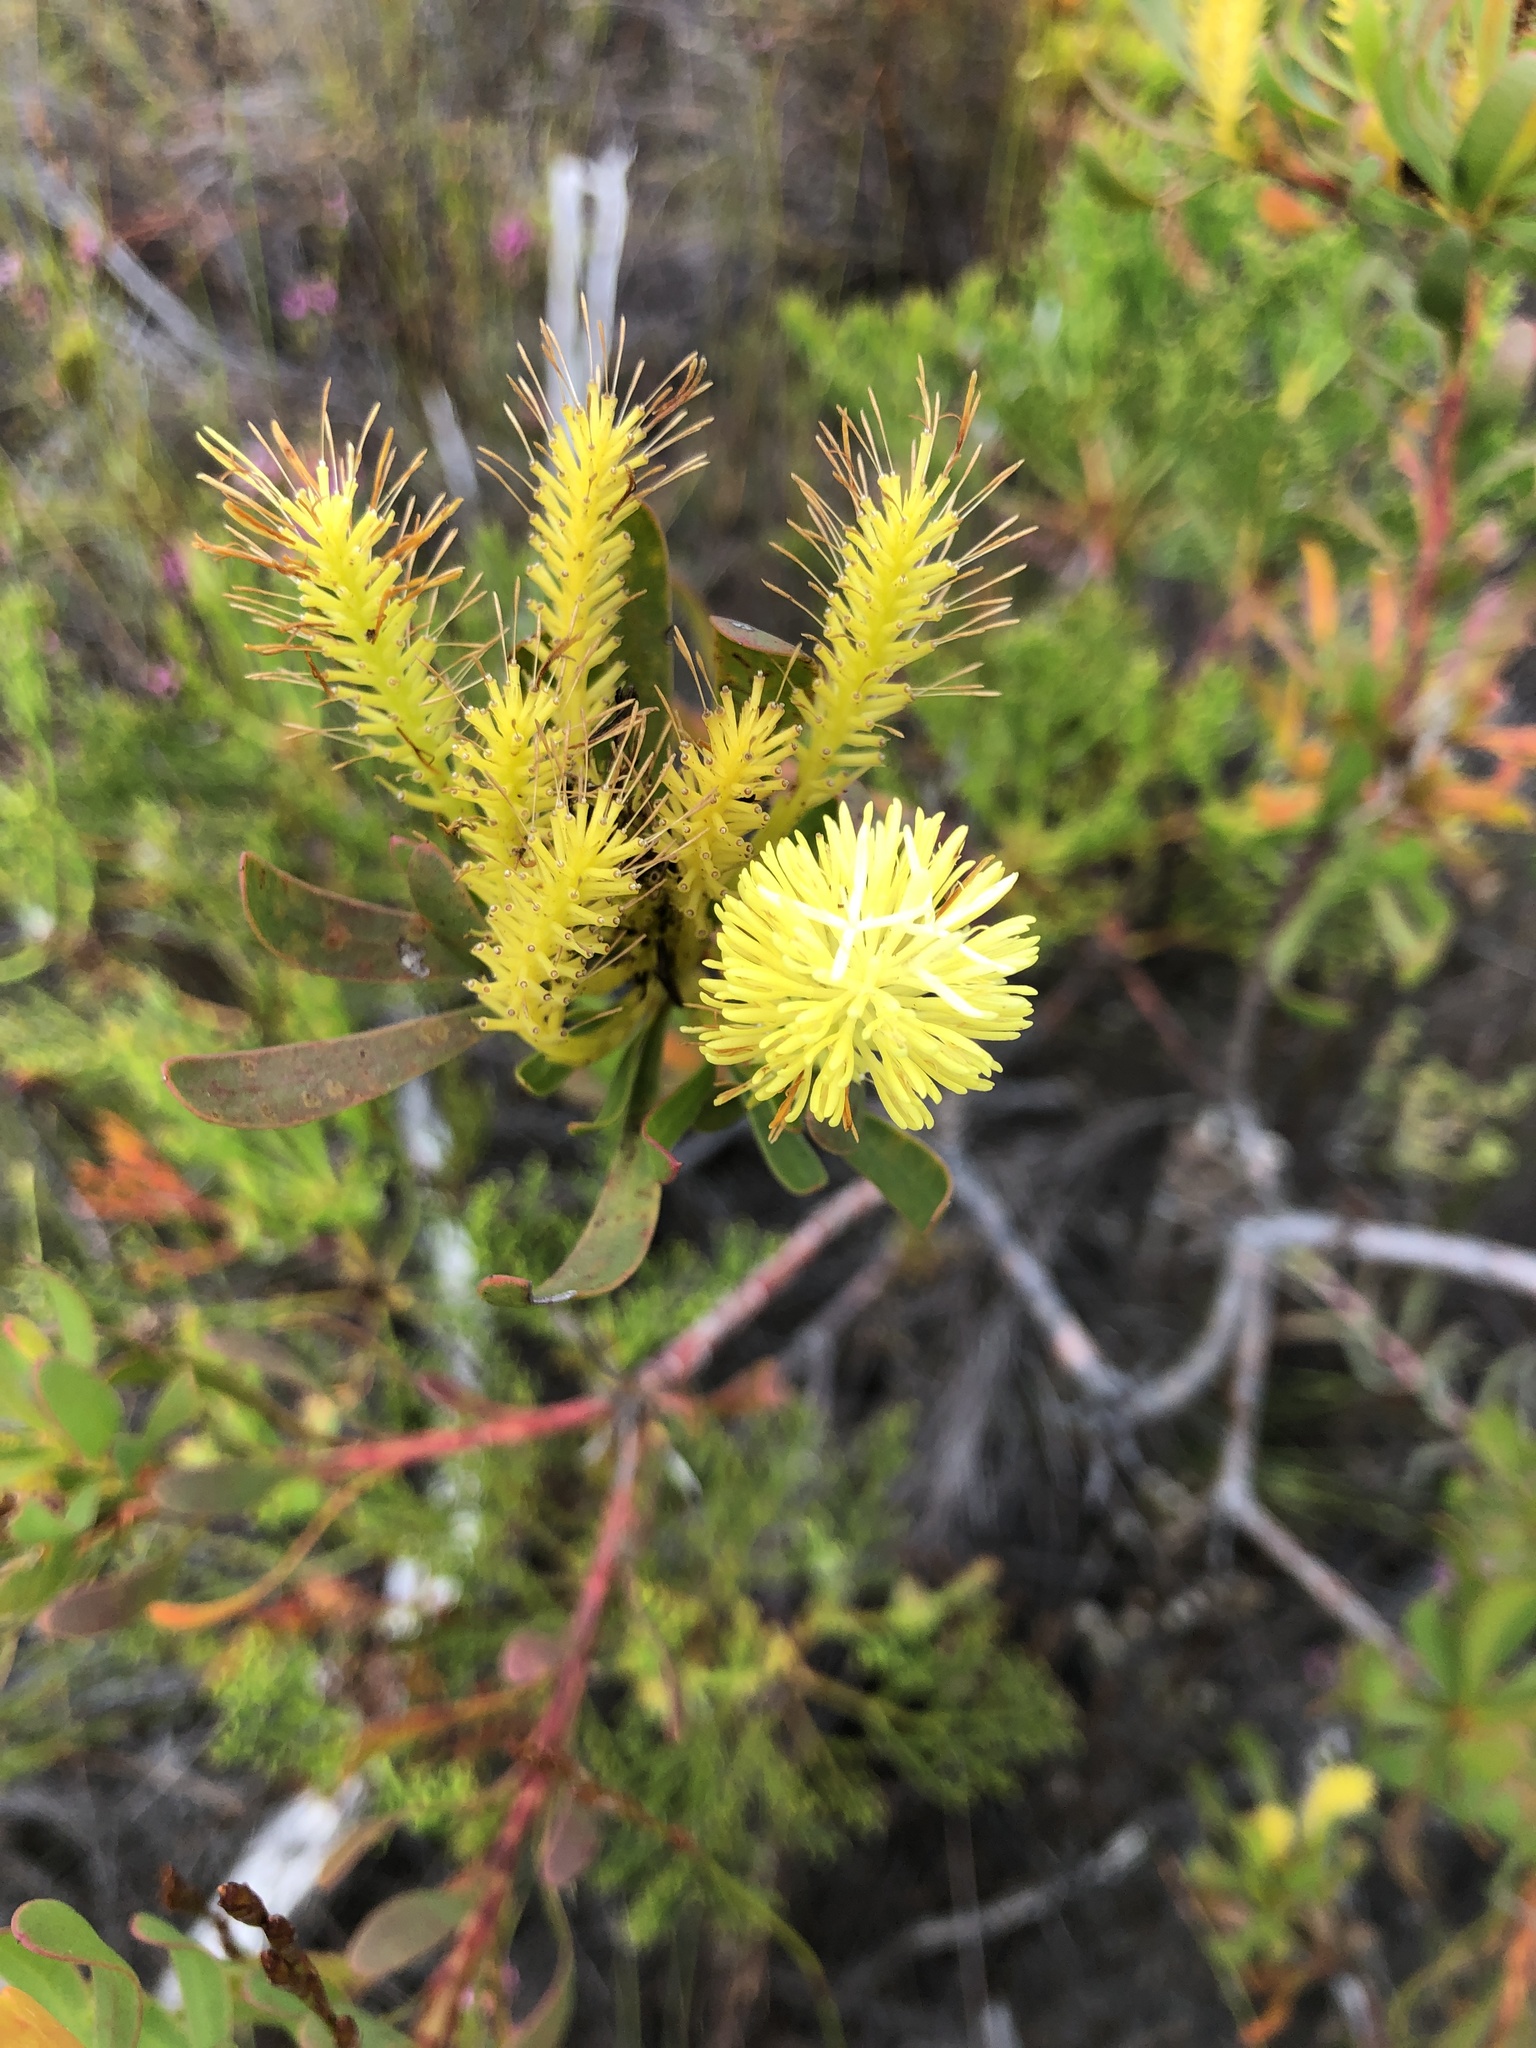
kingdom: Plantae
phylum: Tracheophyta
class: Magnoliopsida
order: Proteales
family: Proteaceae
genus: Aulax
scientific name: Aulax umbellata
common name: Broad-leaf featherbush
